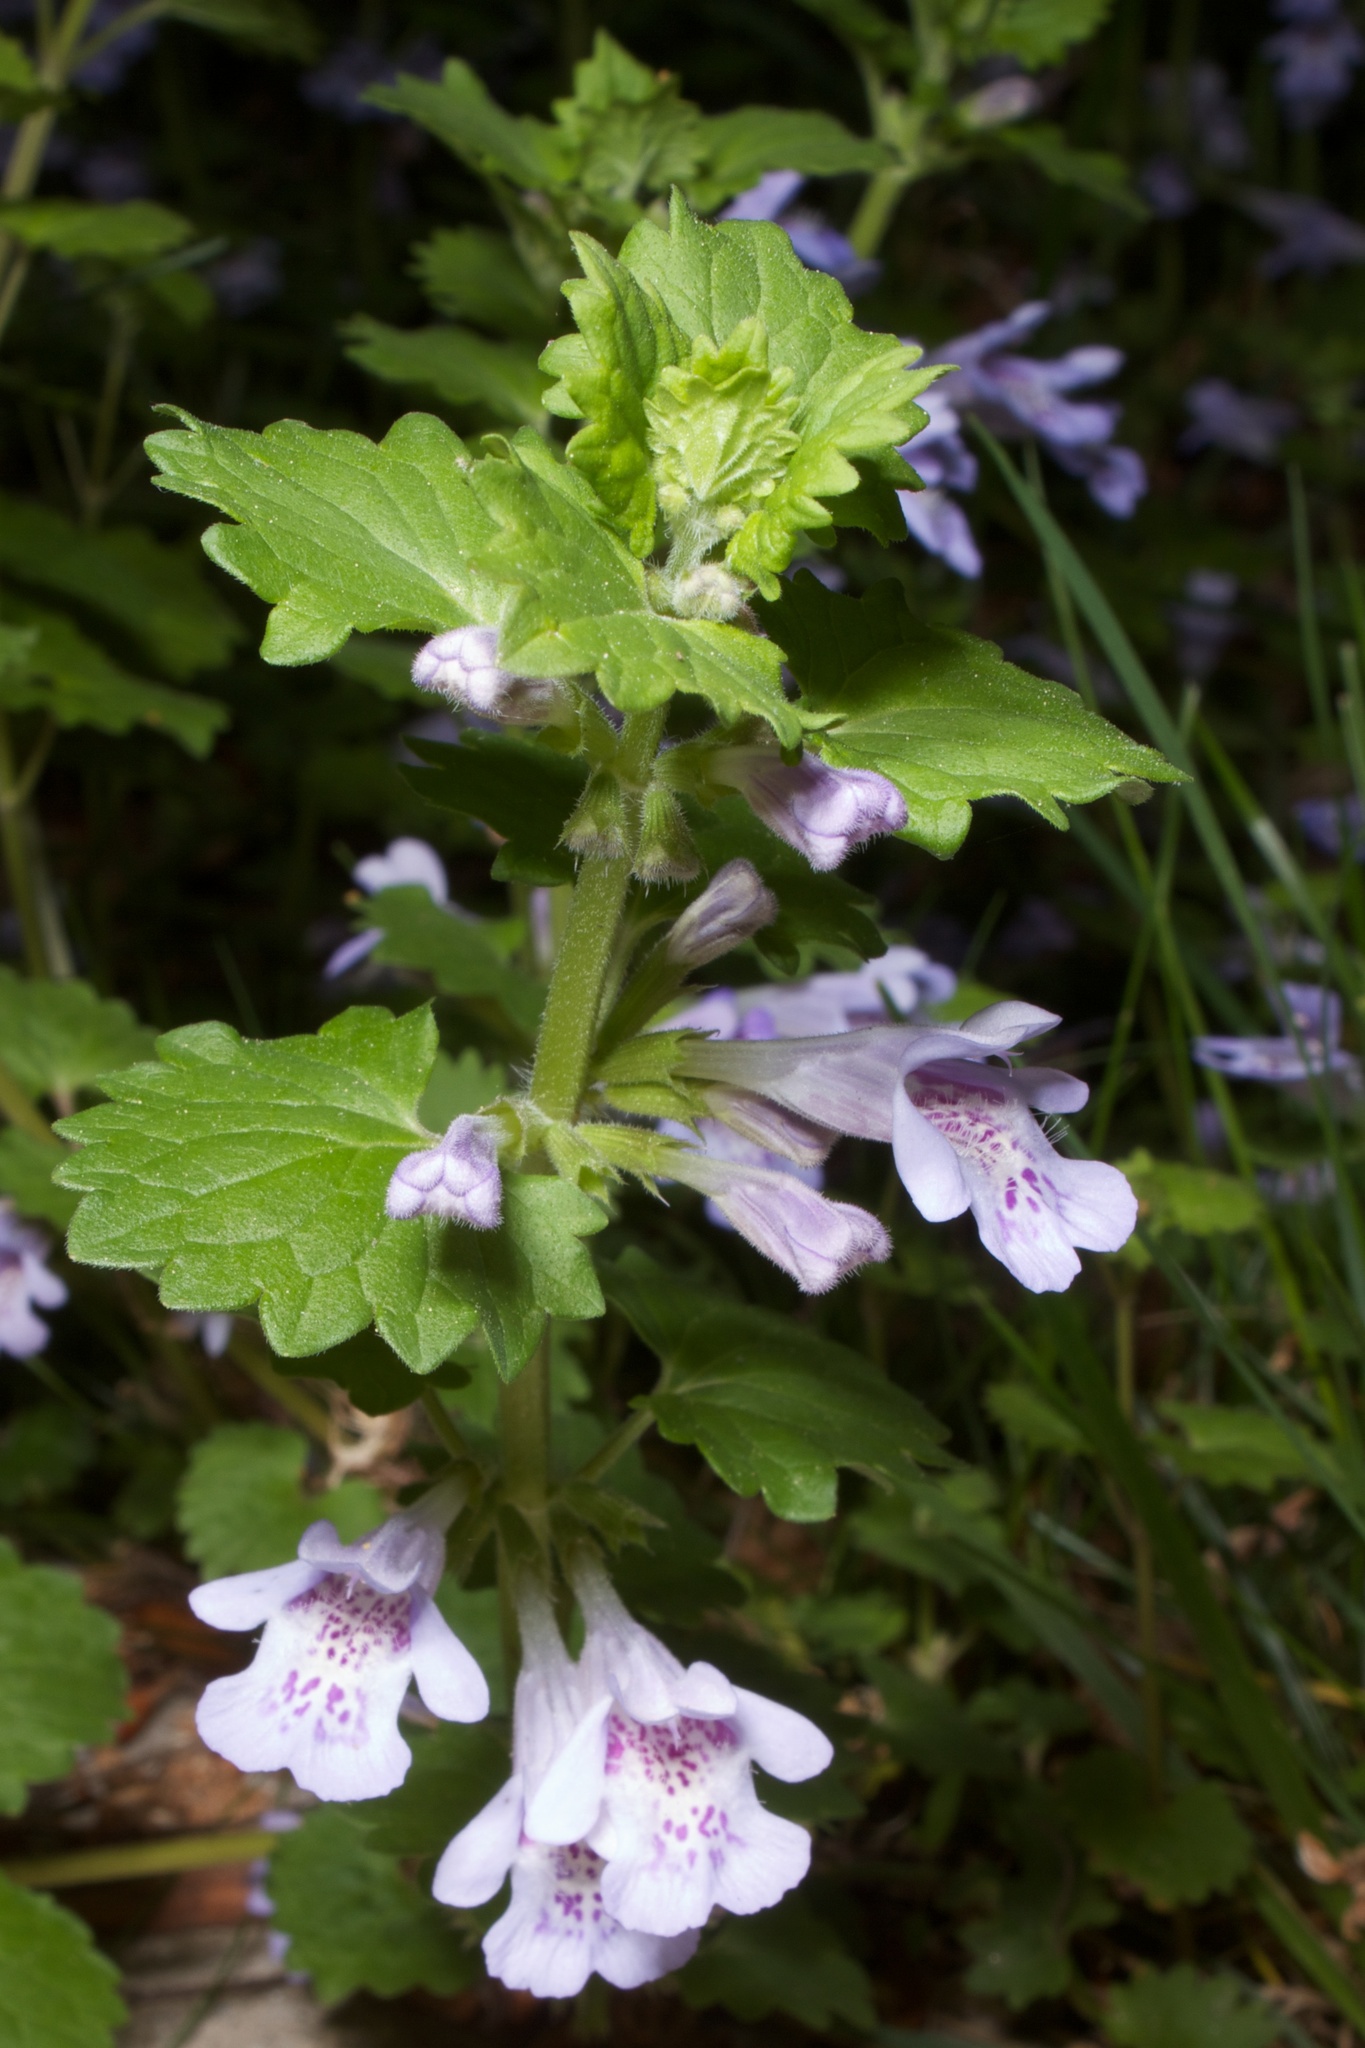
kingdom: Plantae
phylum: Tracheophyta
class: Magnoliopsida
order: Lamiales
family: Lamiaceae
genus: Glechoma
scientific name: Glechoma hederacea
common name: Ground ivy
